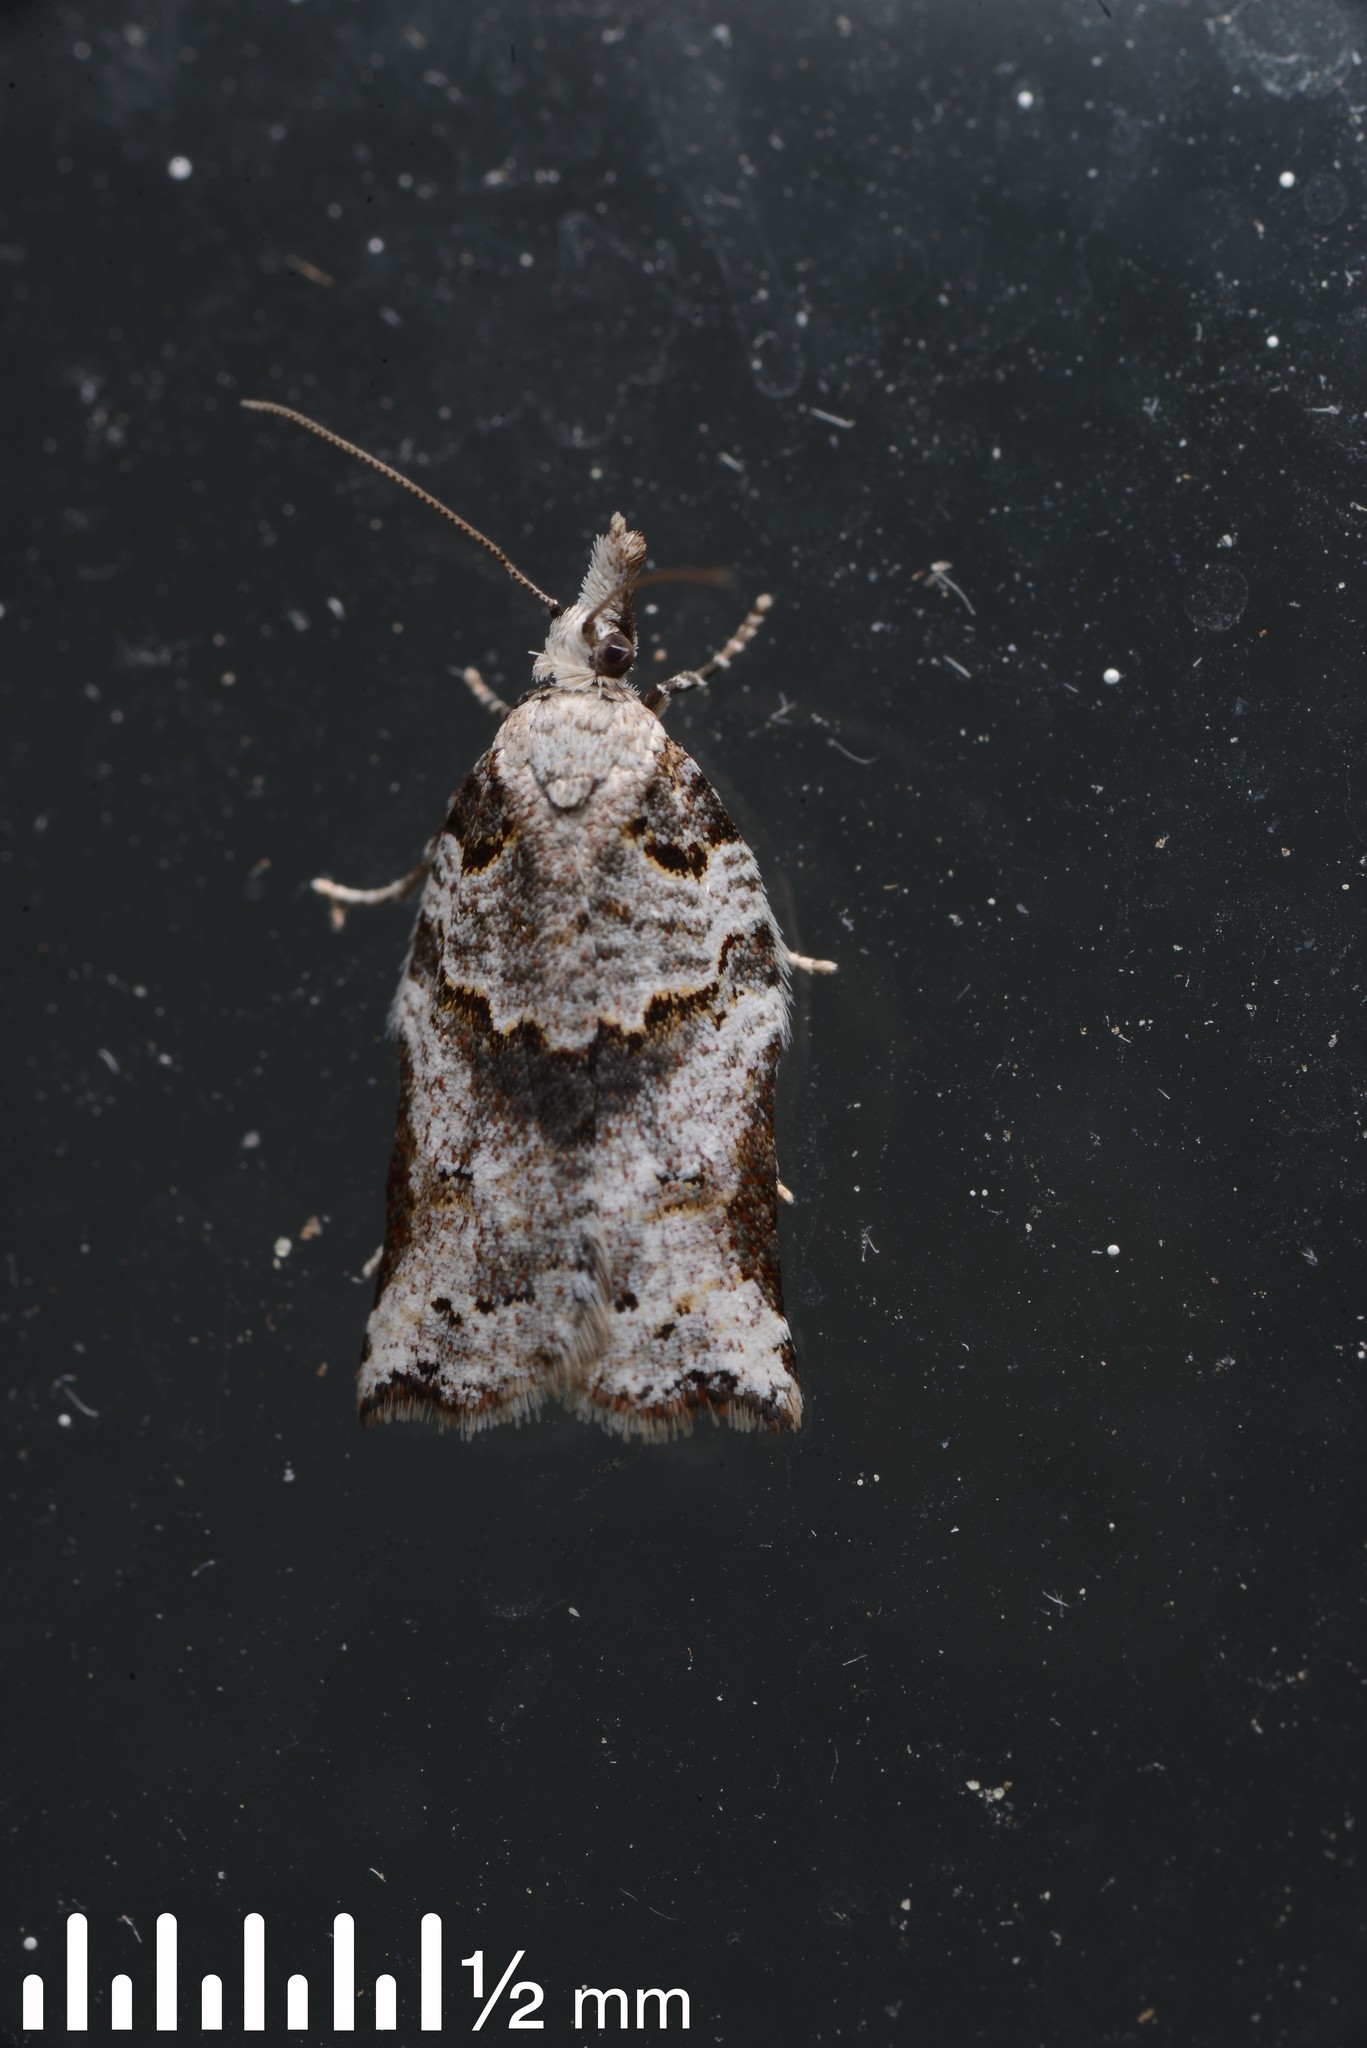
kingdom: Animalia
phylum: Arthropoda
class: Insecta
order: Lepidoptera
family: Tortricidae
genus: Harmologa
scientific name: Harmologa amplexana
